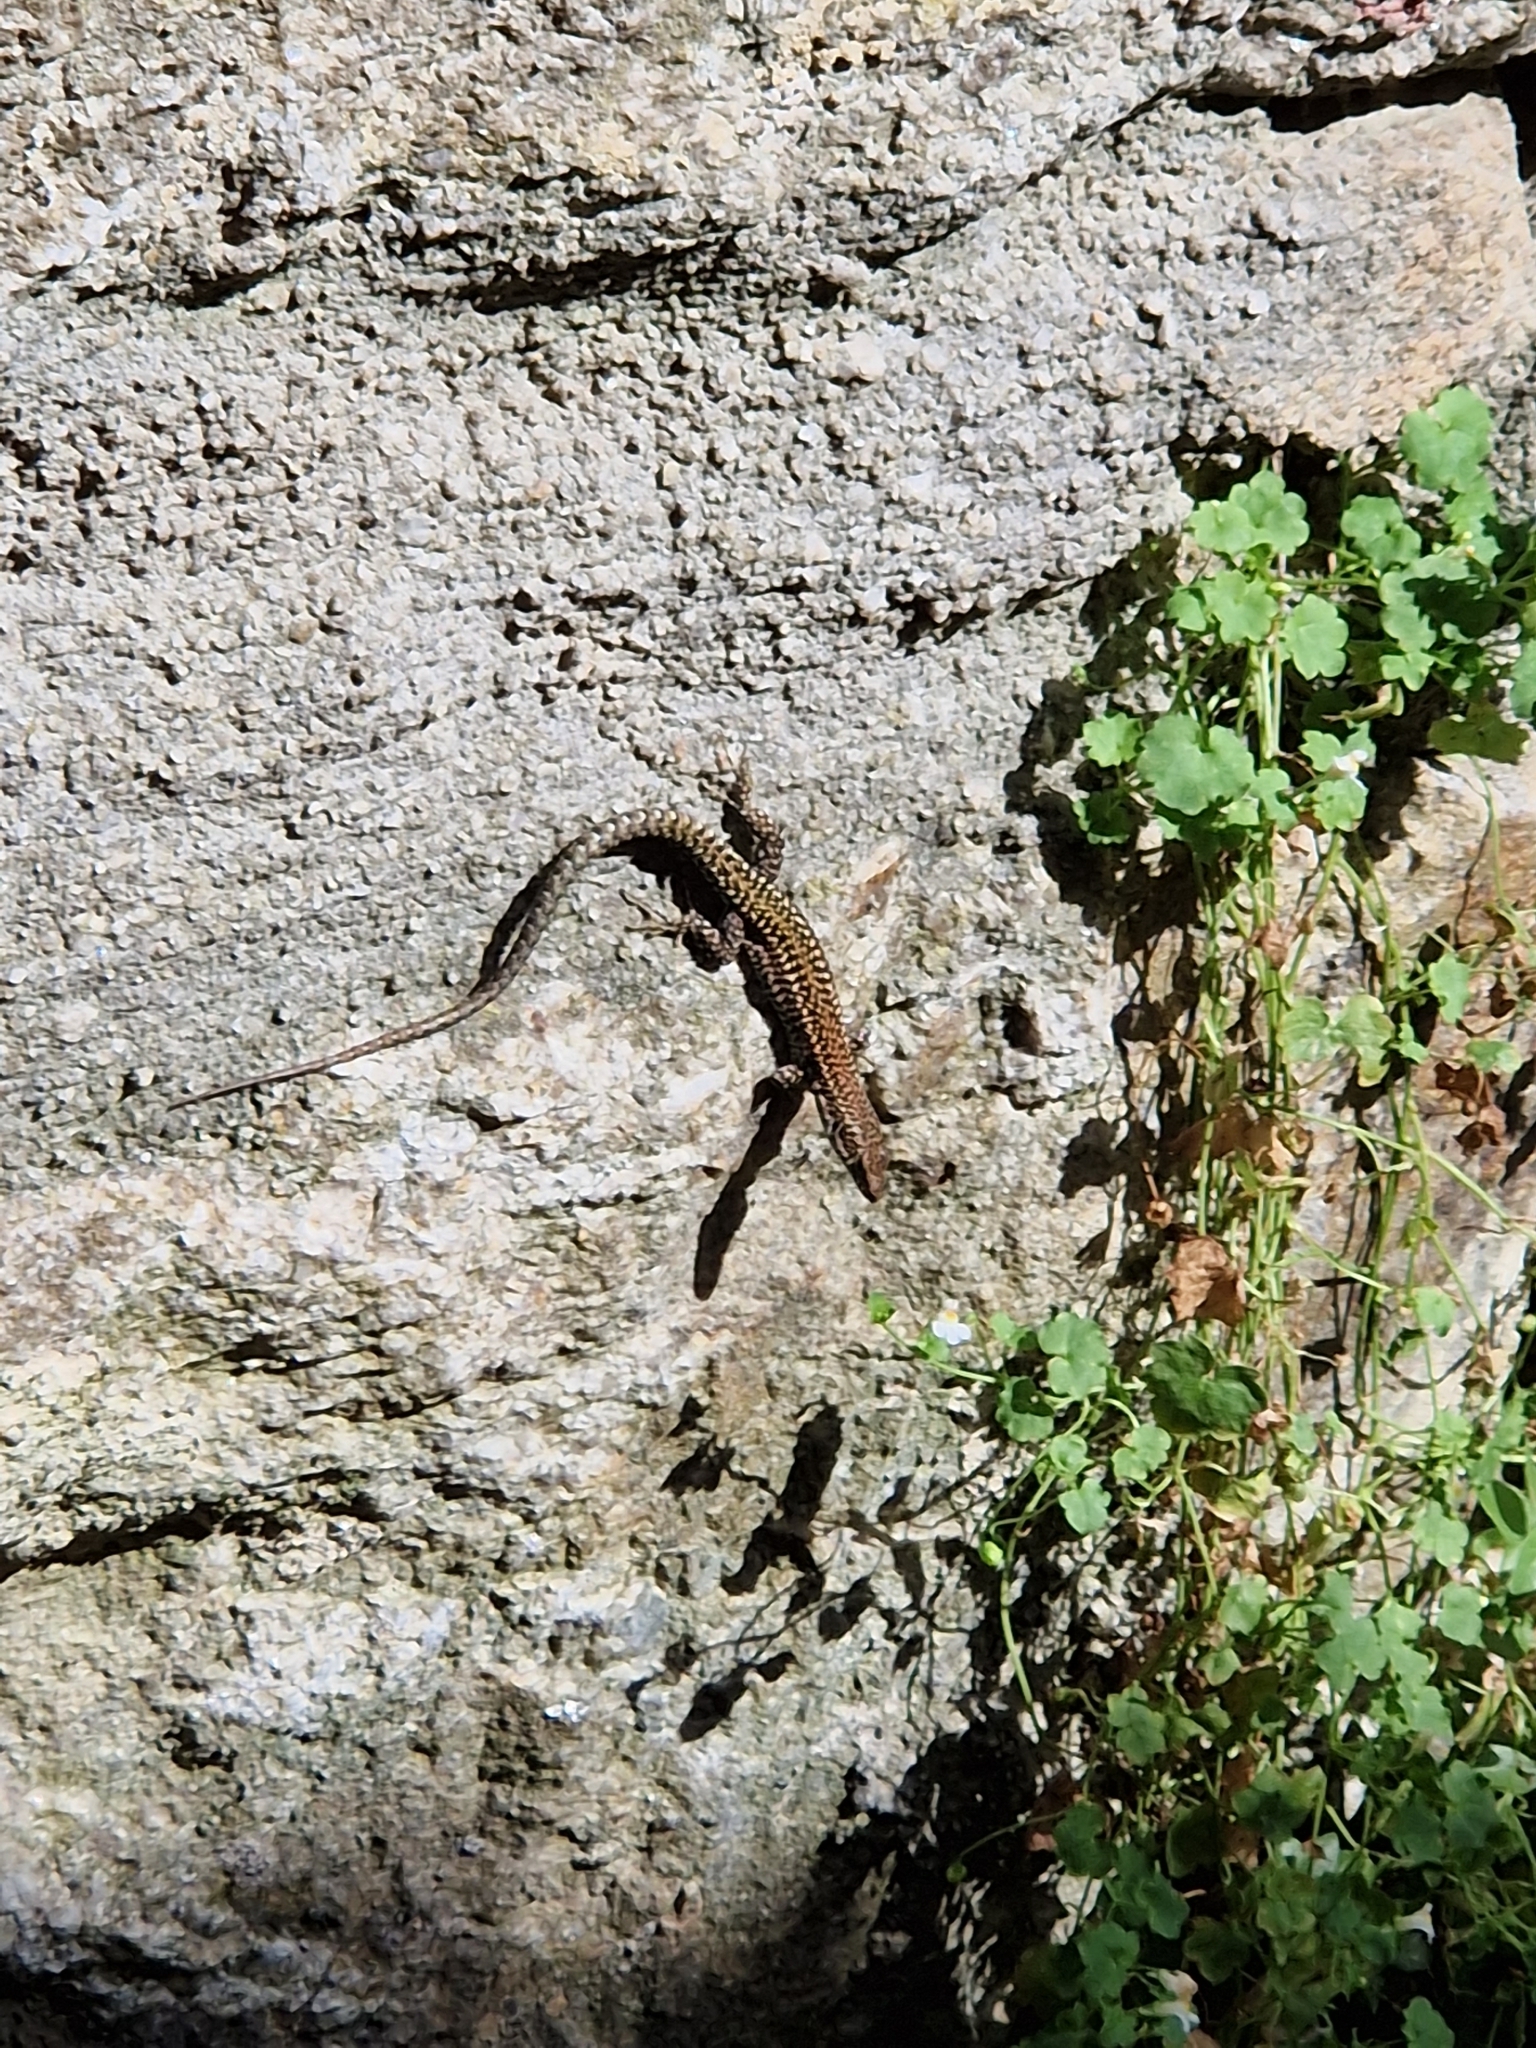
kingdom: Animalia
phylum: Chordata
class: Squamata
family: Lacertidae
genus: Podarcis
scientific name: Podarcis
